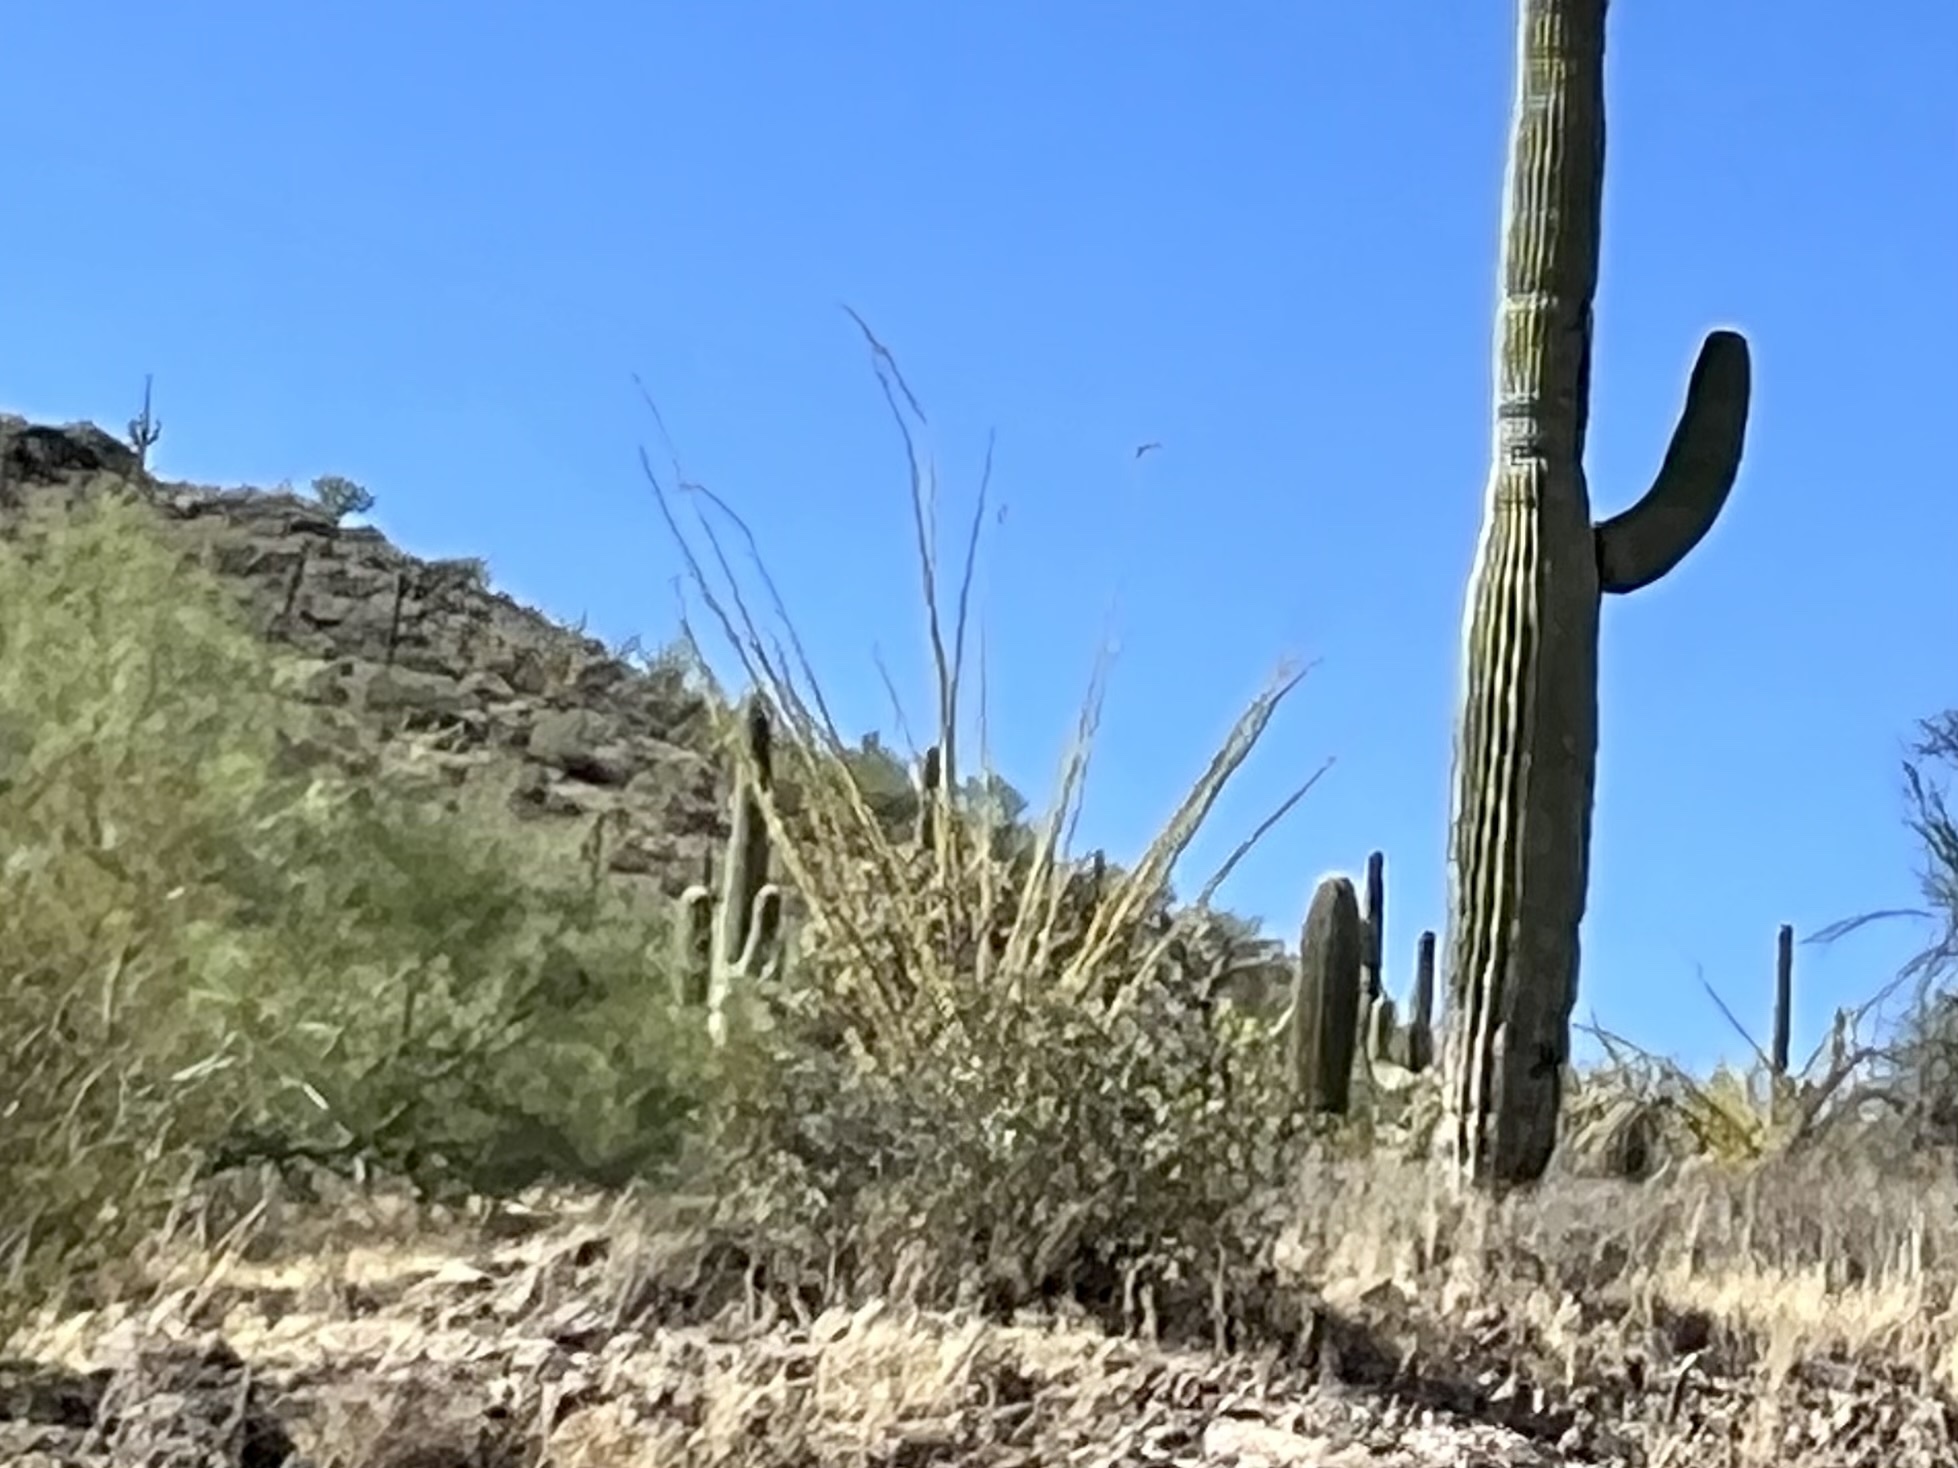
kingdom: Plantae
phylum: Tracheophyta
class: Magnoliopsida
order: Ericales
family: Fouquieriaceae
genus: Fouquieria
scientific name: Fouquieria splendens
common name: Vine-cactus
